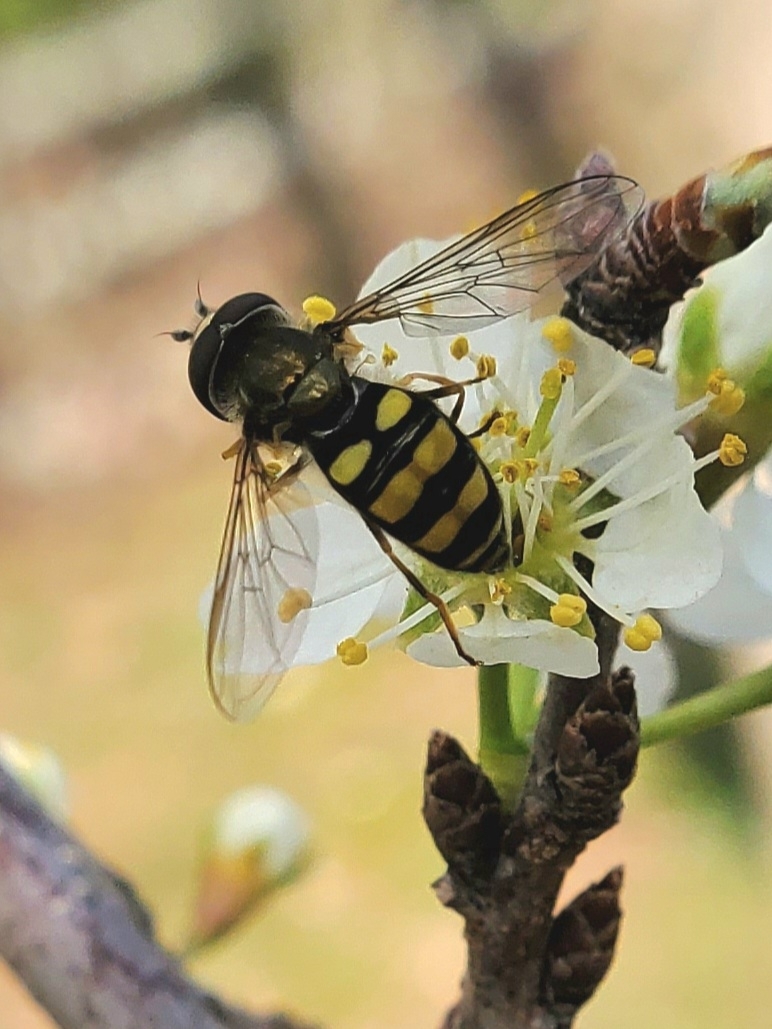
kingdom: Animalia
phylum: Arthropoda
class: Insecta
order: Diptera
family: Syrphidae
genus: Eupeodes
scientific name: Eupeodes
